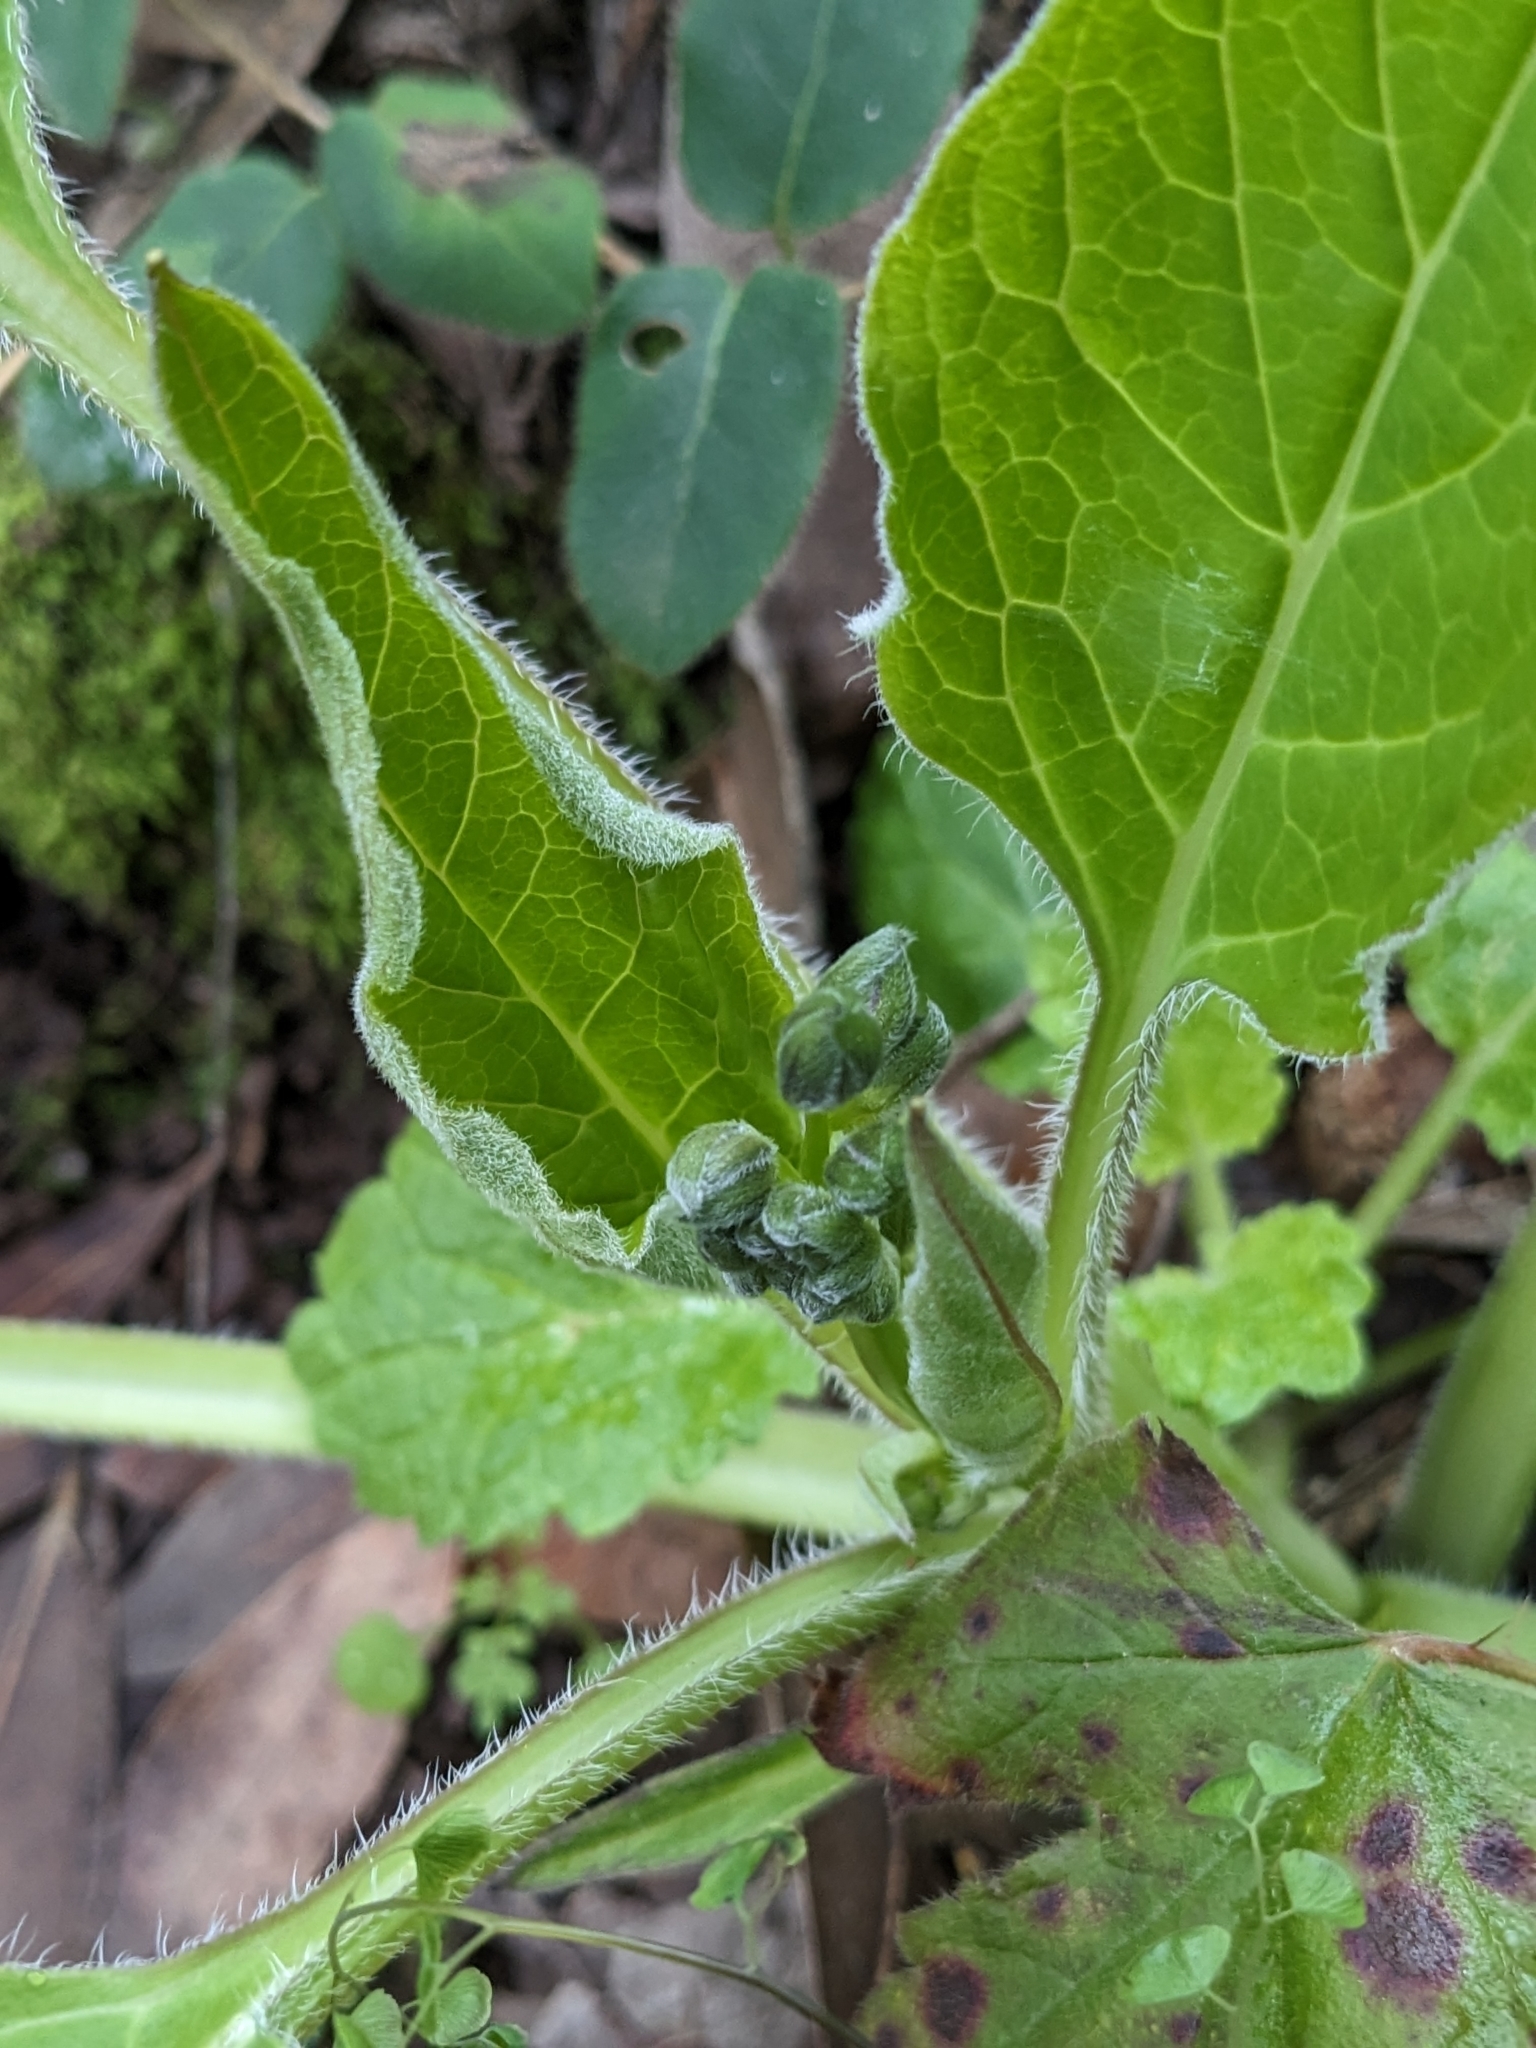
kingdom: Plantae
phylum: Tracheophyta
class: Magnoliopsida
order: Boraginales
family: Boraginaceae
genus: Adelinia
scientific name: Adelinia grande
